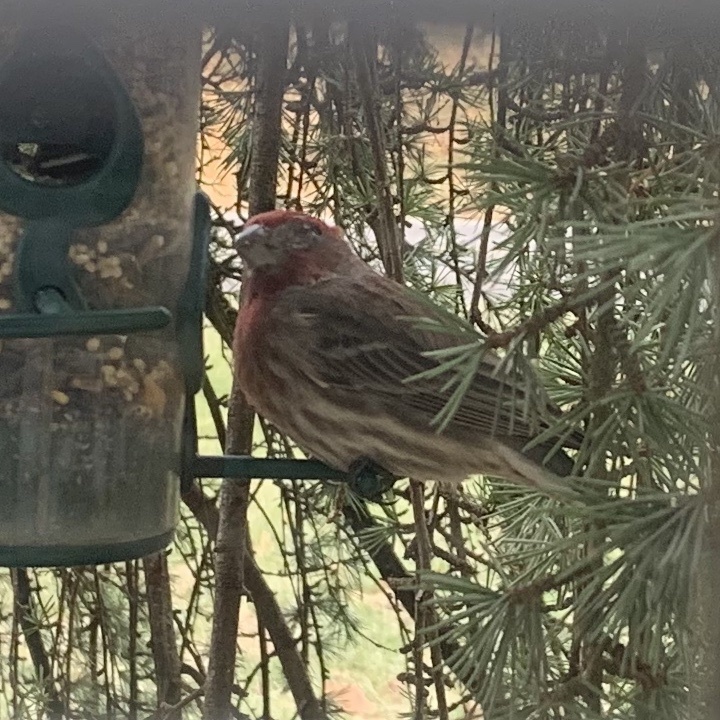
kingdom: Animalia
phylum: Chordata
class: Aves
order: Passeriformes
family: Fringillidae
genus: Haemorhous
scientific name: Haemorhous mexicanus
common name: House finch
